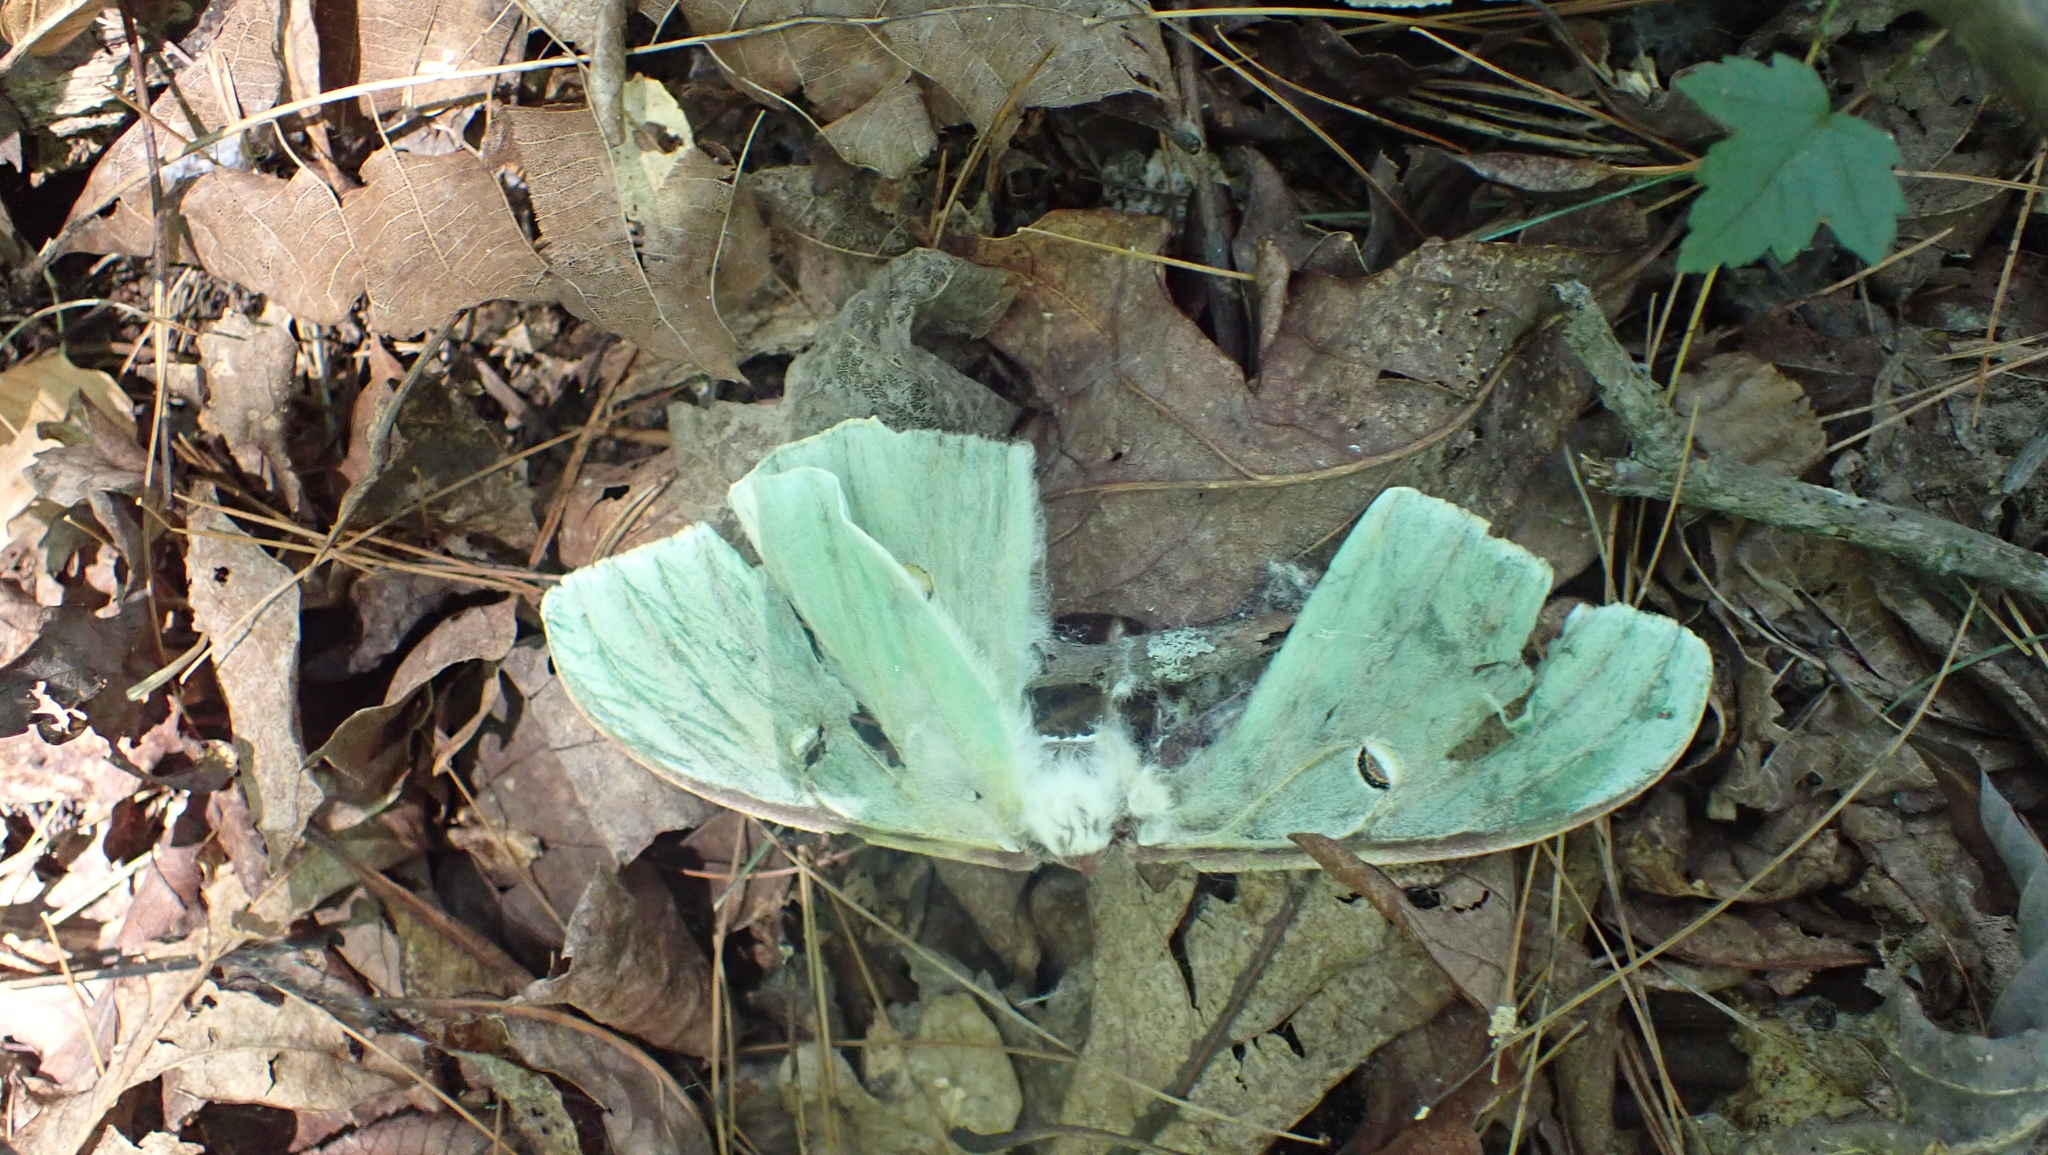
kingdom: Animalia
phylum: Arthropoda
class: Insecta
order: Lepidoptera
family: Saturniidae
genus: Actias
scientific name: Actias luna
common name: Luna moth
